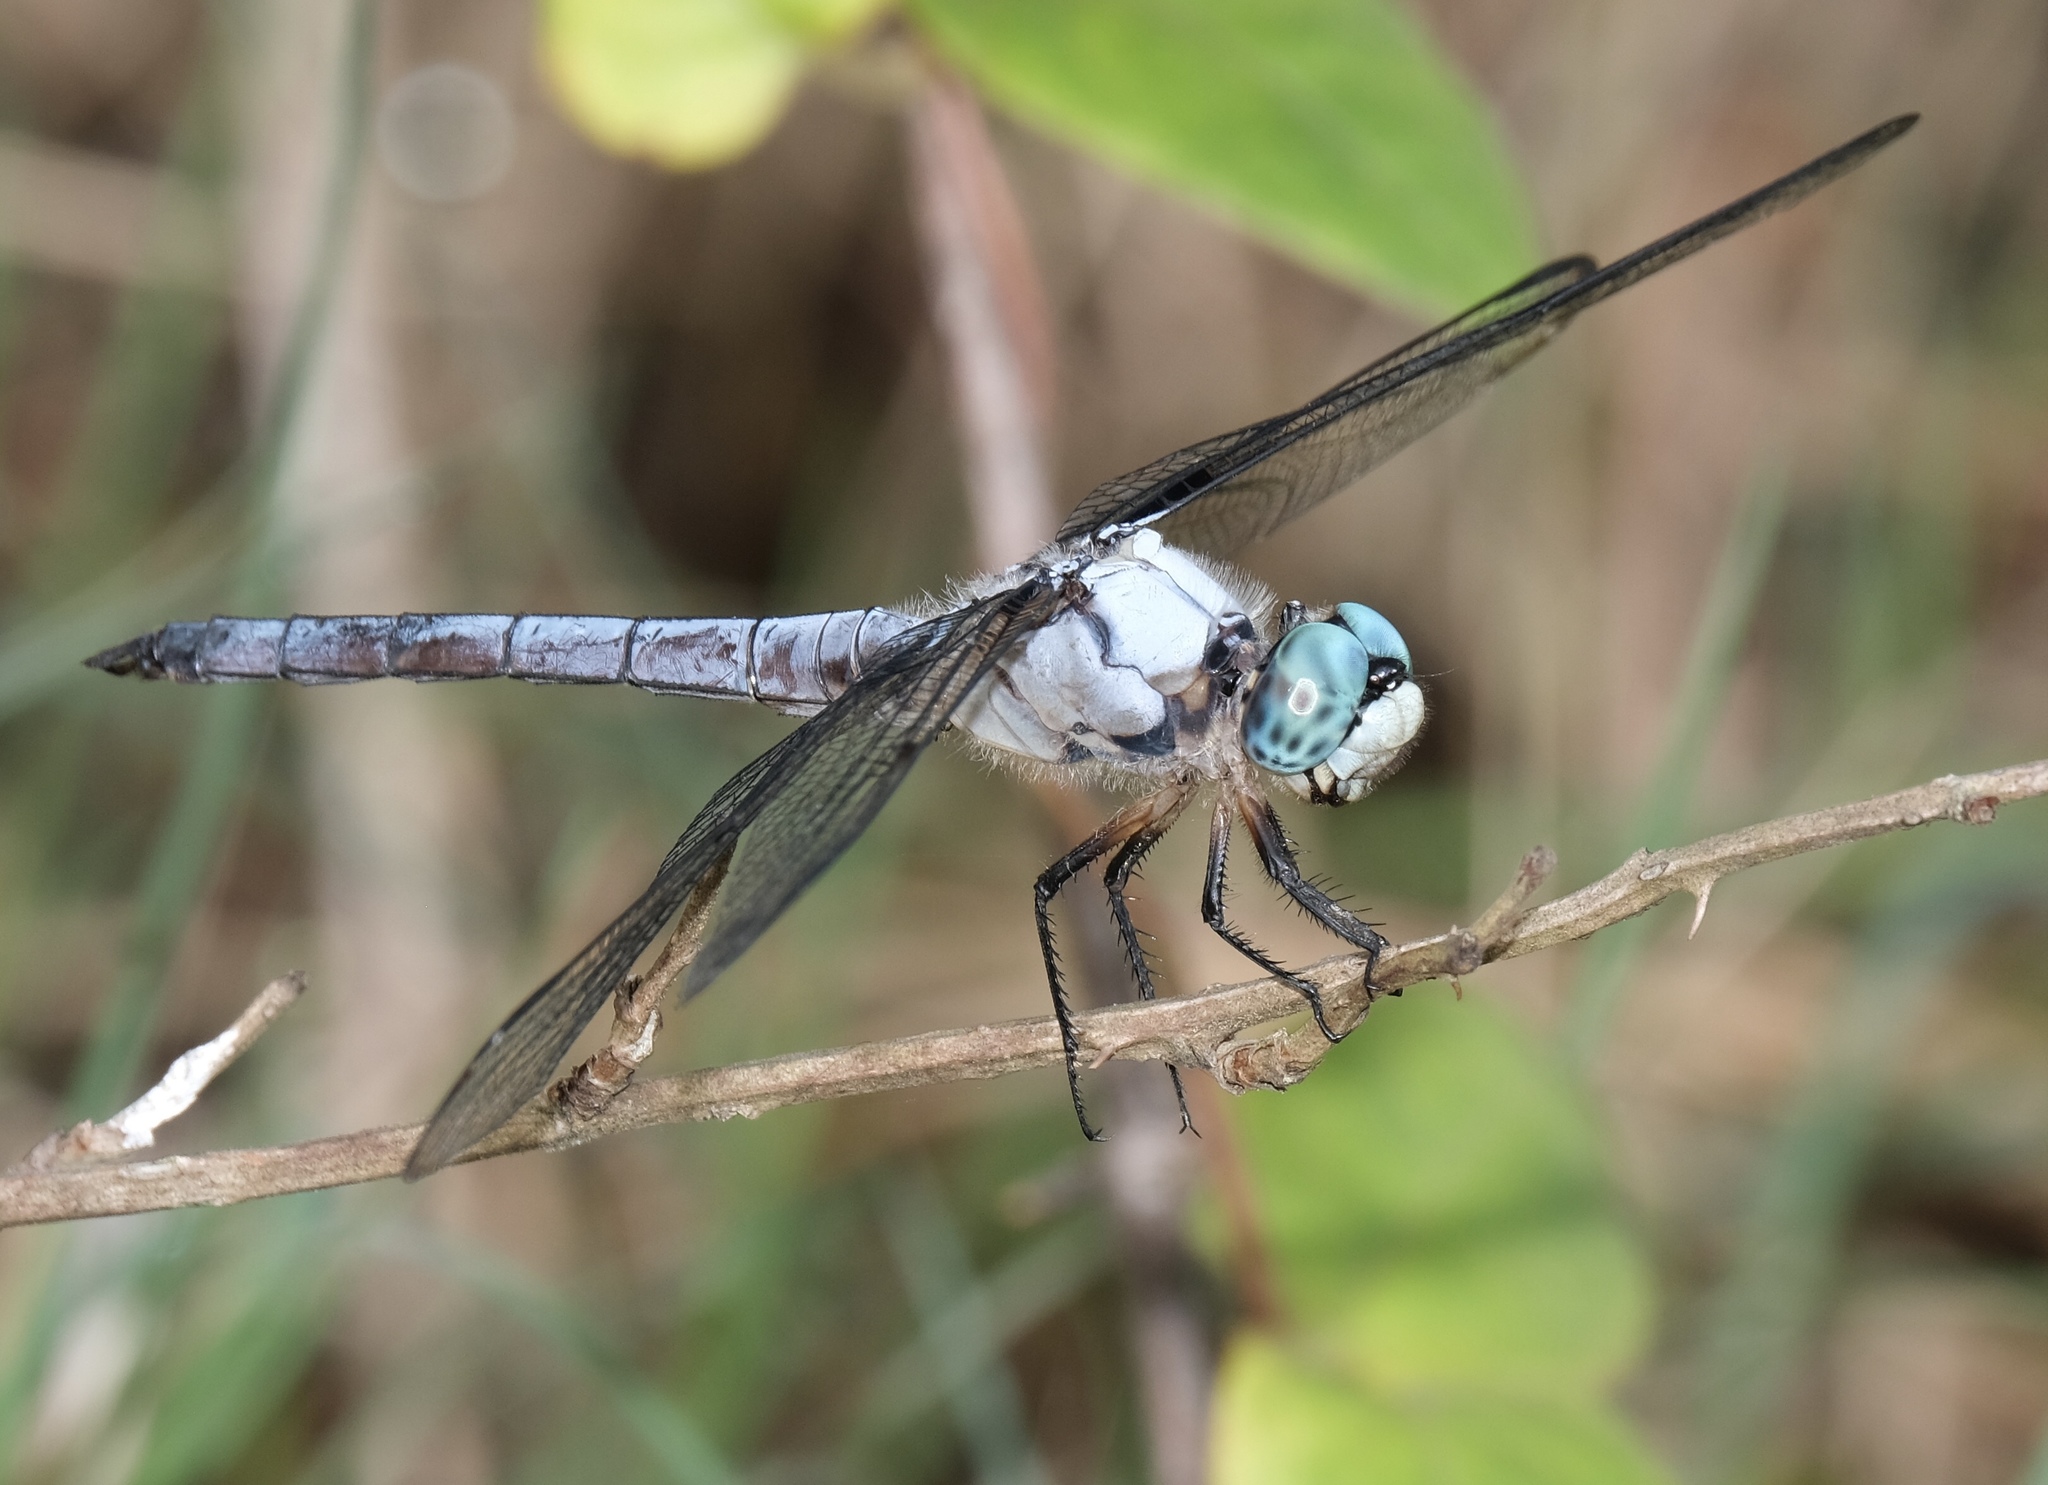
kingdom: Animalia
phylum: Arthropoda
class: Insecta
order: Odonata
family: Libellulidae
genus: Libellula
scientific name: Libellula vibrans
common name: Great blue skimmer
